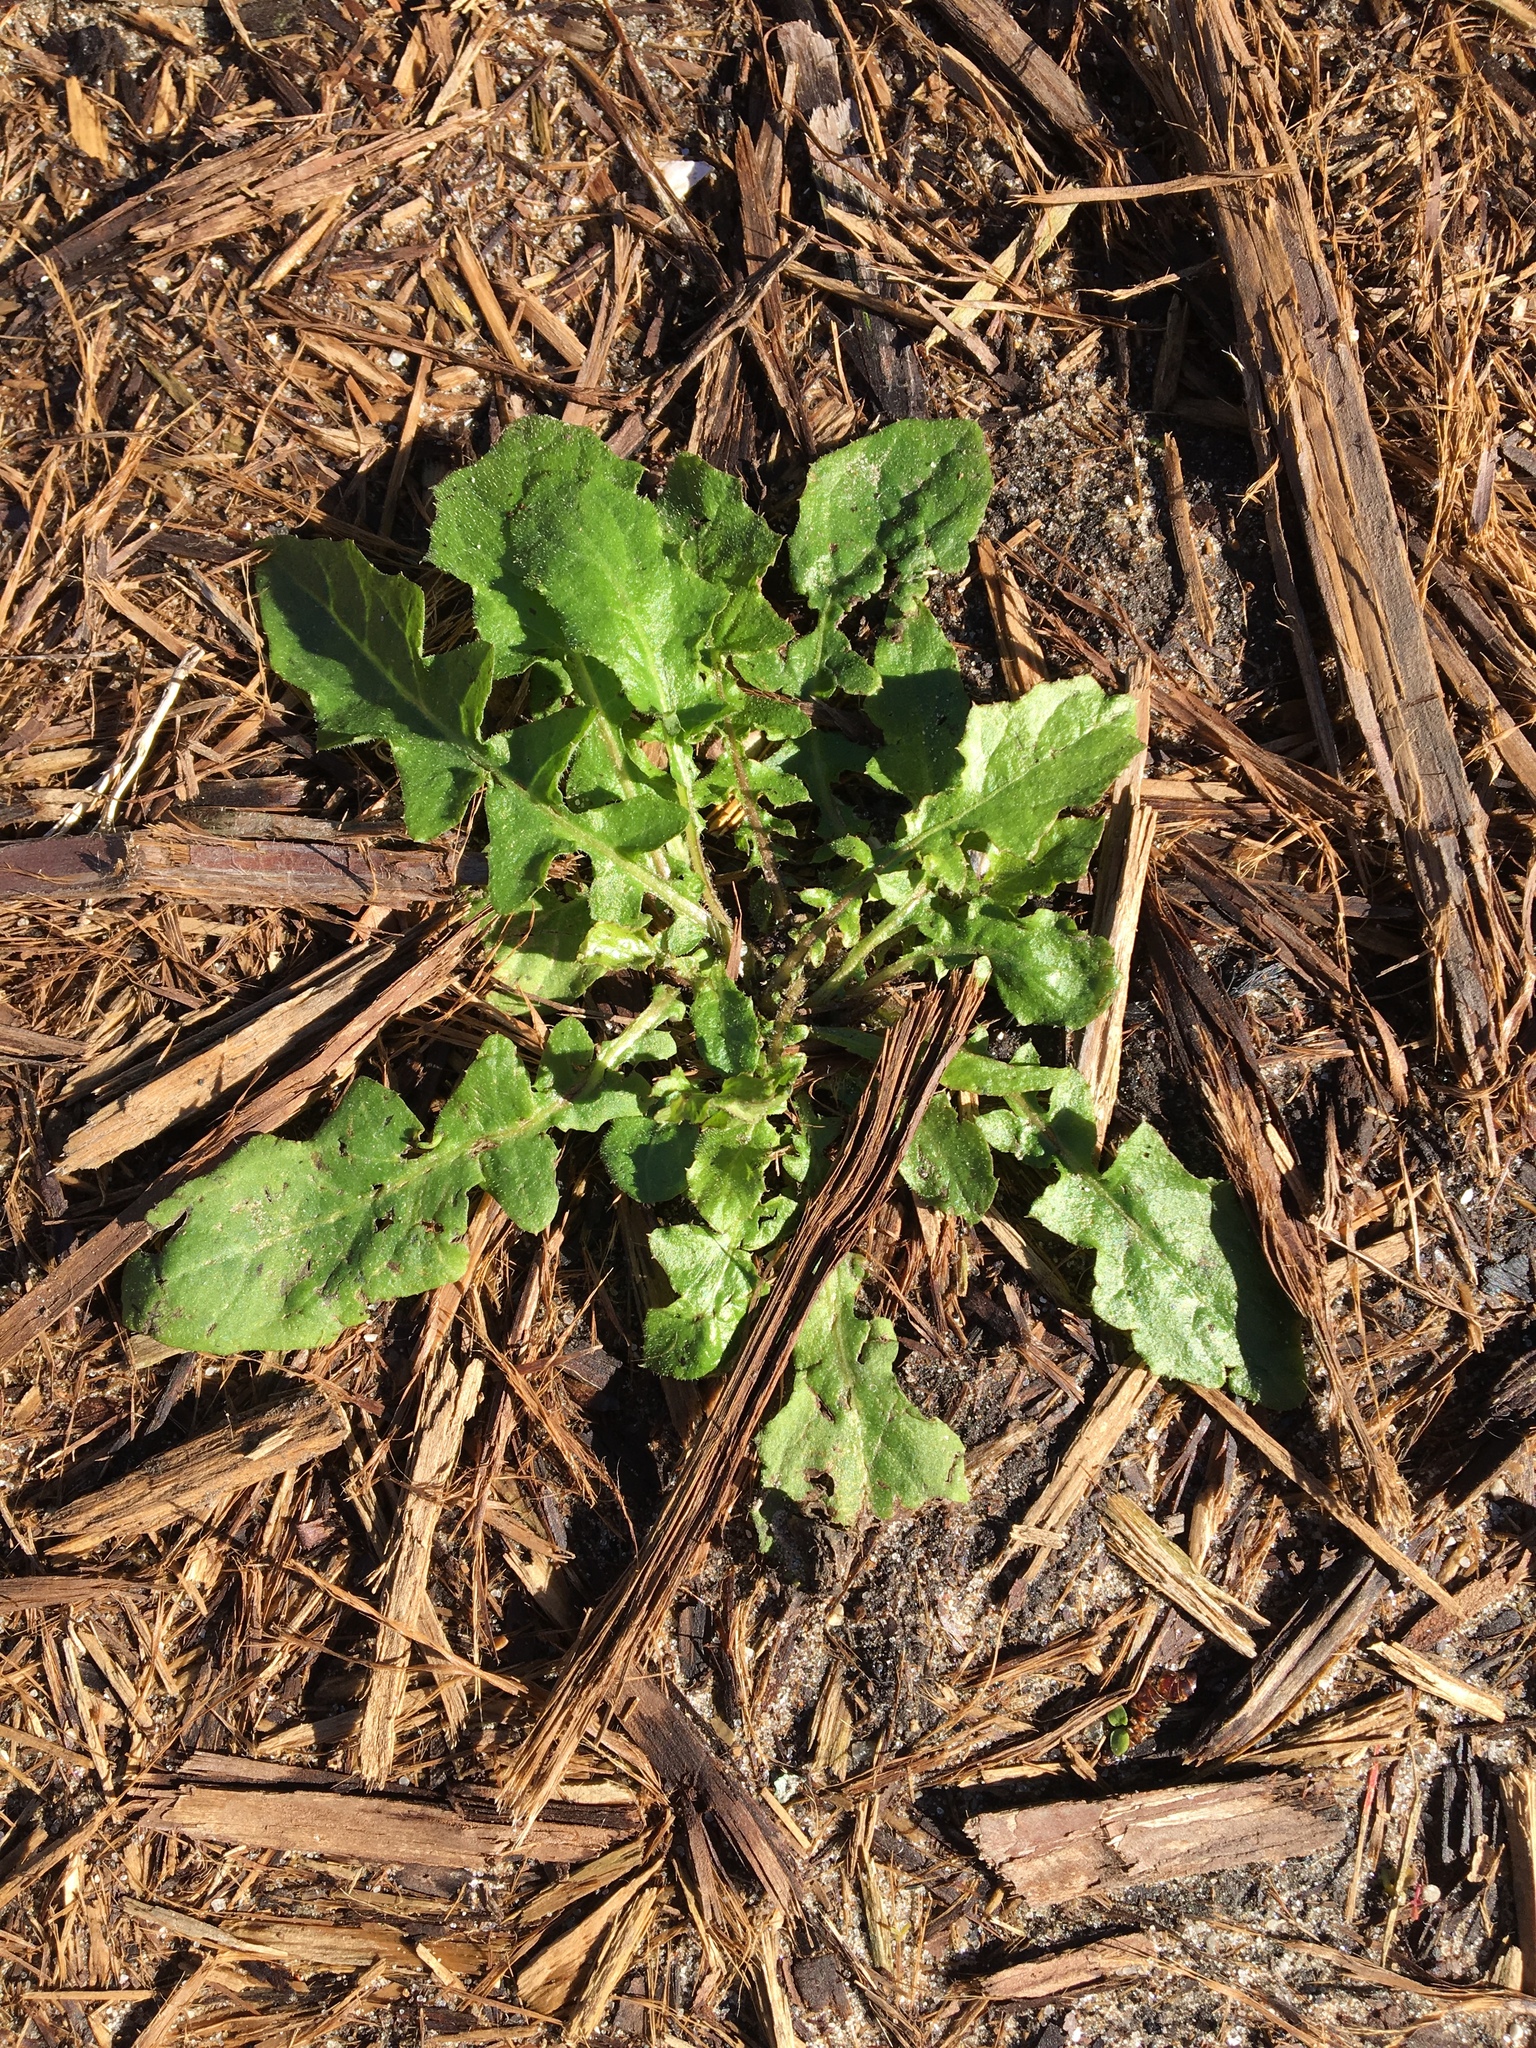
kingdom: Plantae
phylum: Tracheophyta
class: Magnoliopsida
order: Asterales
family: Asteraceae
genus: Taraxacum
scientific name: Taraxacum officinale
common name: Common dandelion
